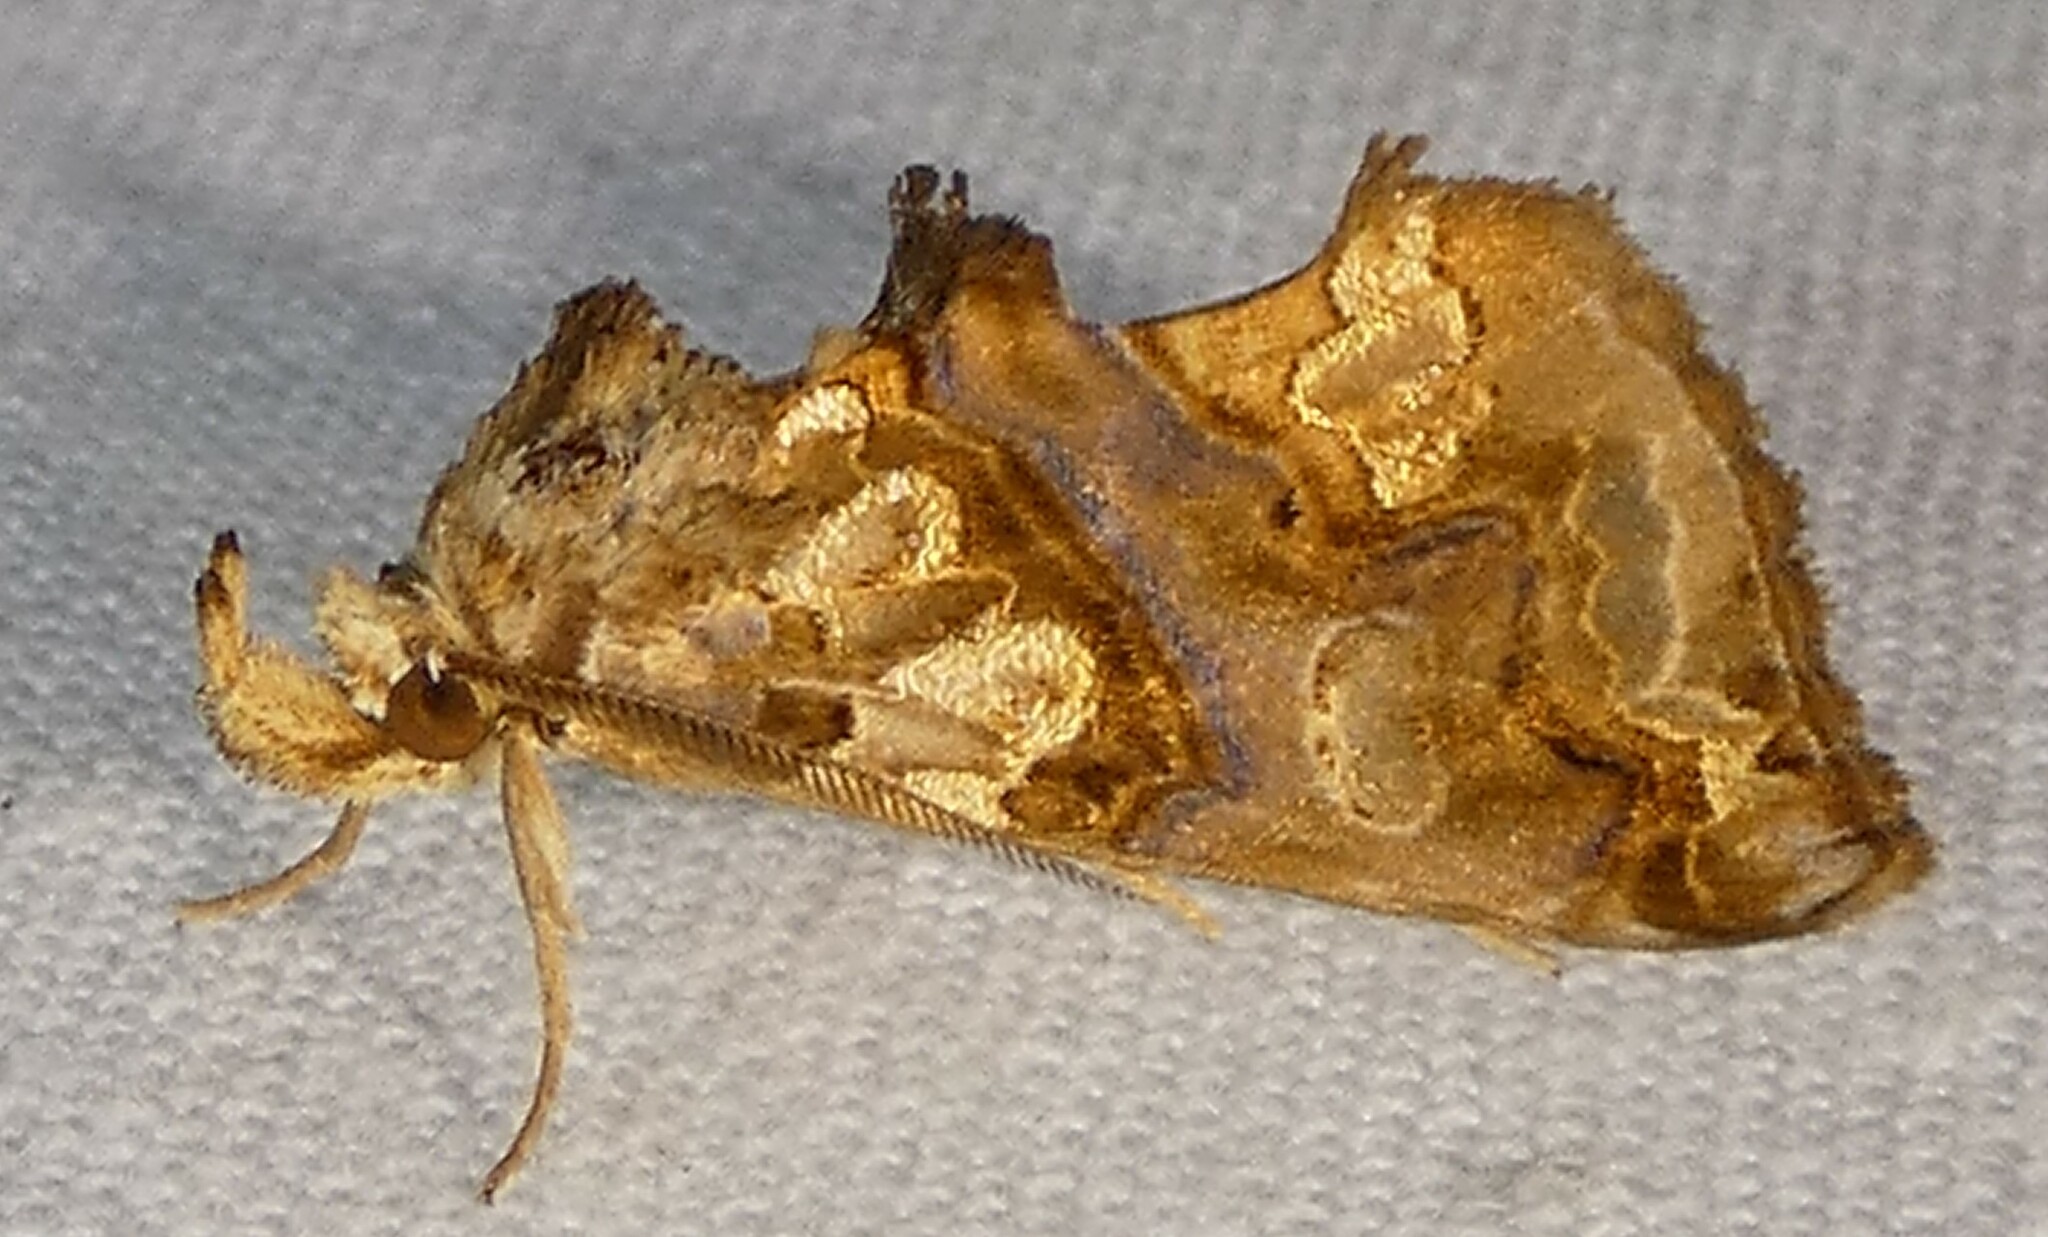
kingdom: Animalia
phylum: Arthropoda
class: Insecta
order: Lepidoptera
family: Erebidae
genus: Plusiodonta
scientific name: Plusiodonta compressipalpis
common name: Moonseed moth
